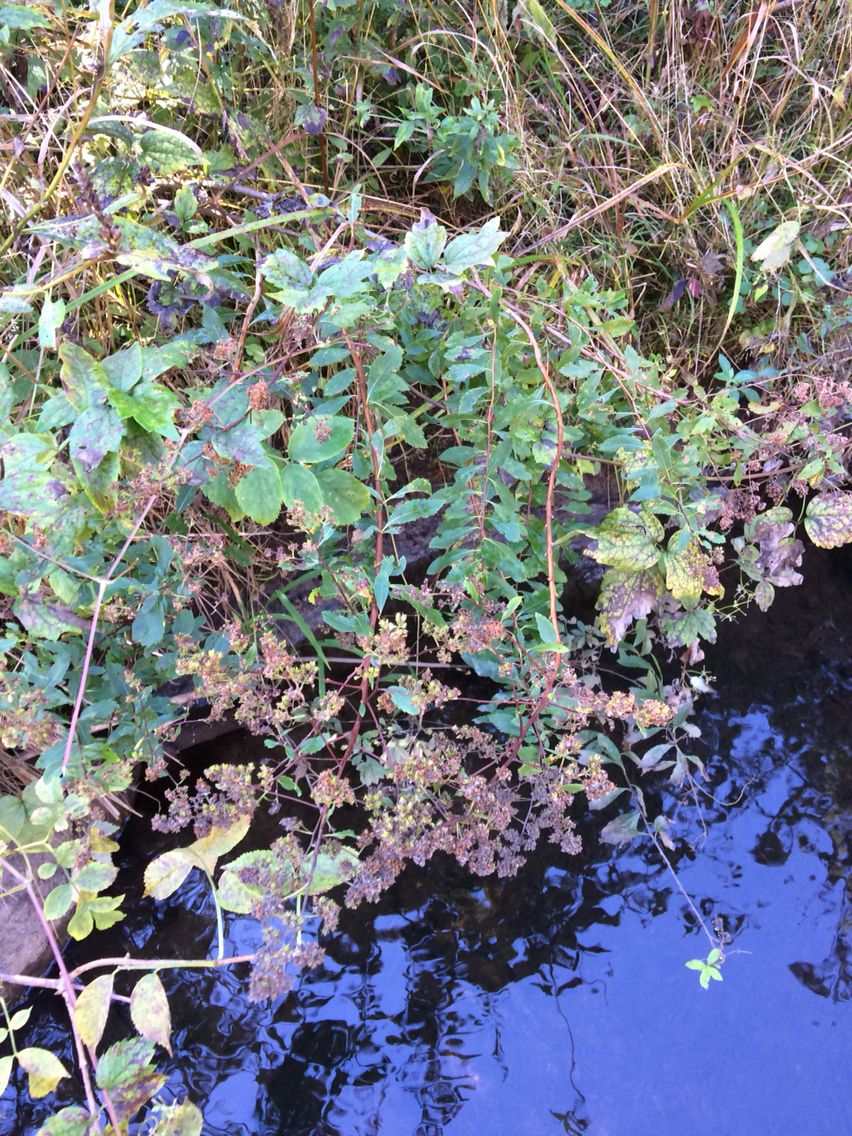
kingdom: Plantae
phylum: Tracheophyta
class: Magnoliopsida
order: Rosales
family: Rosaceae
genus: Spiraea
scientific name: Spiraea alba
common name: Pale bridewort
